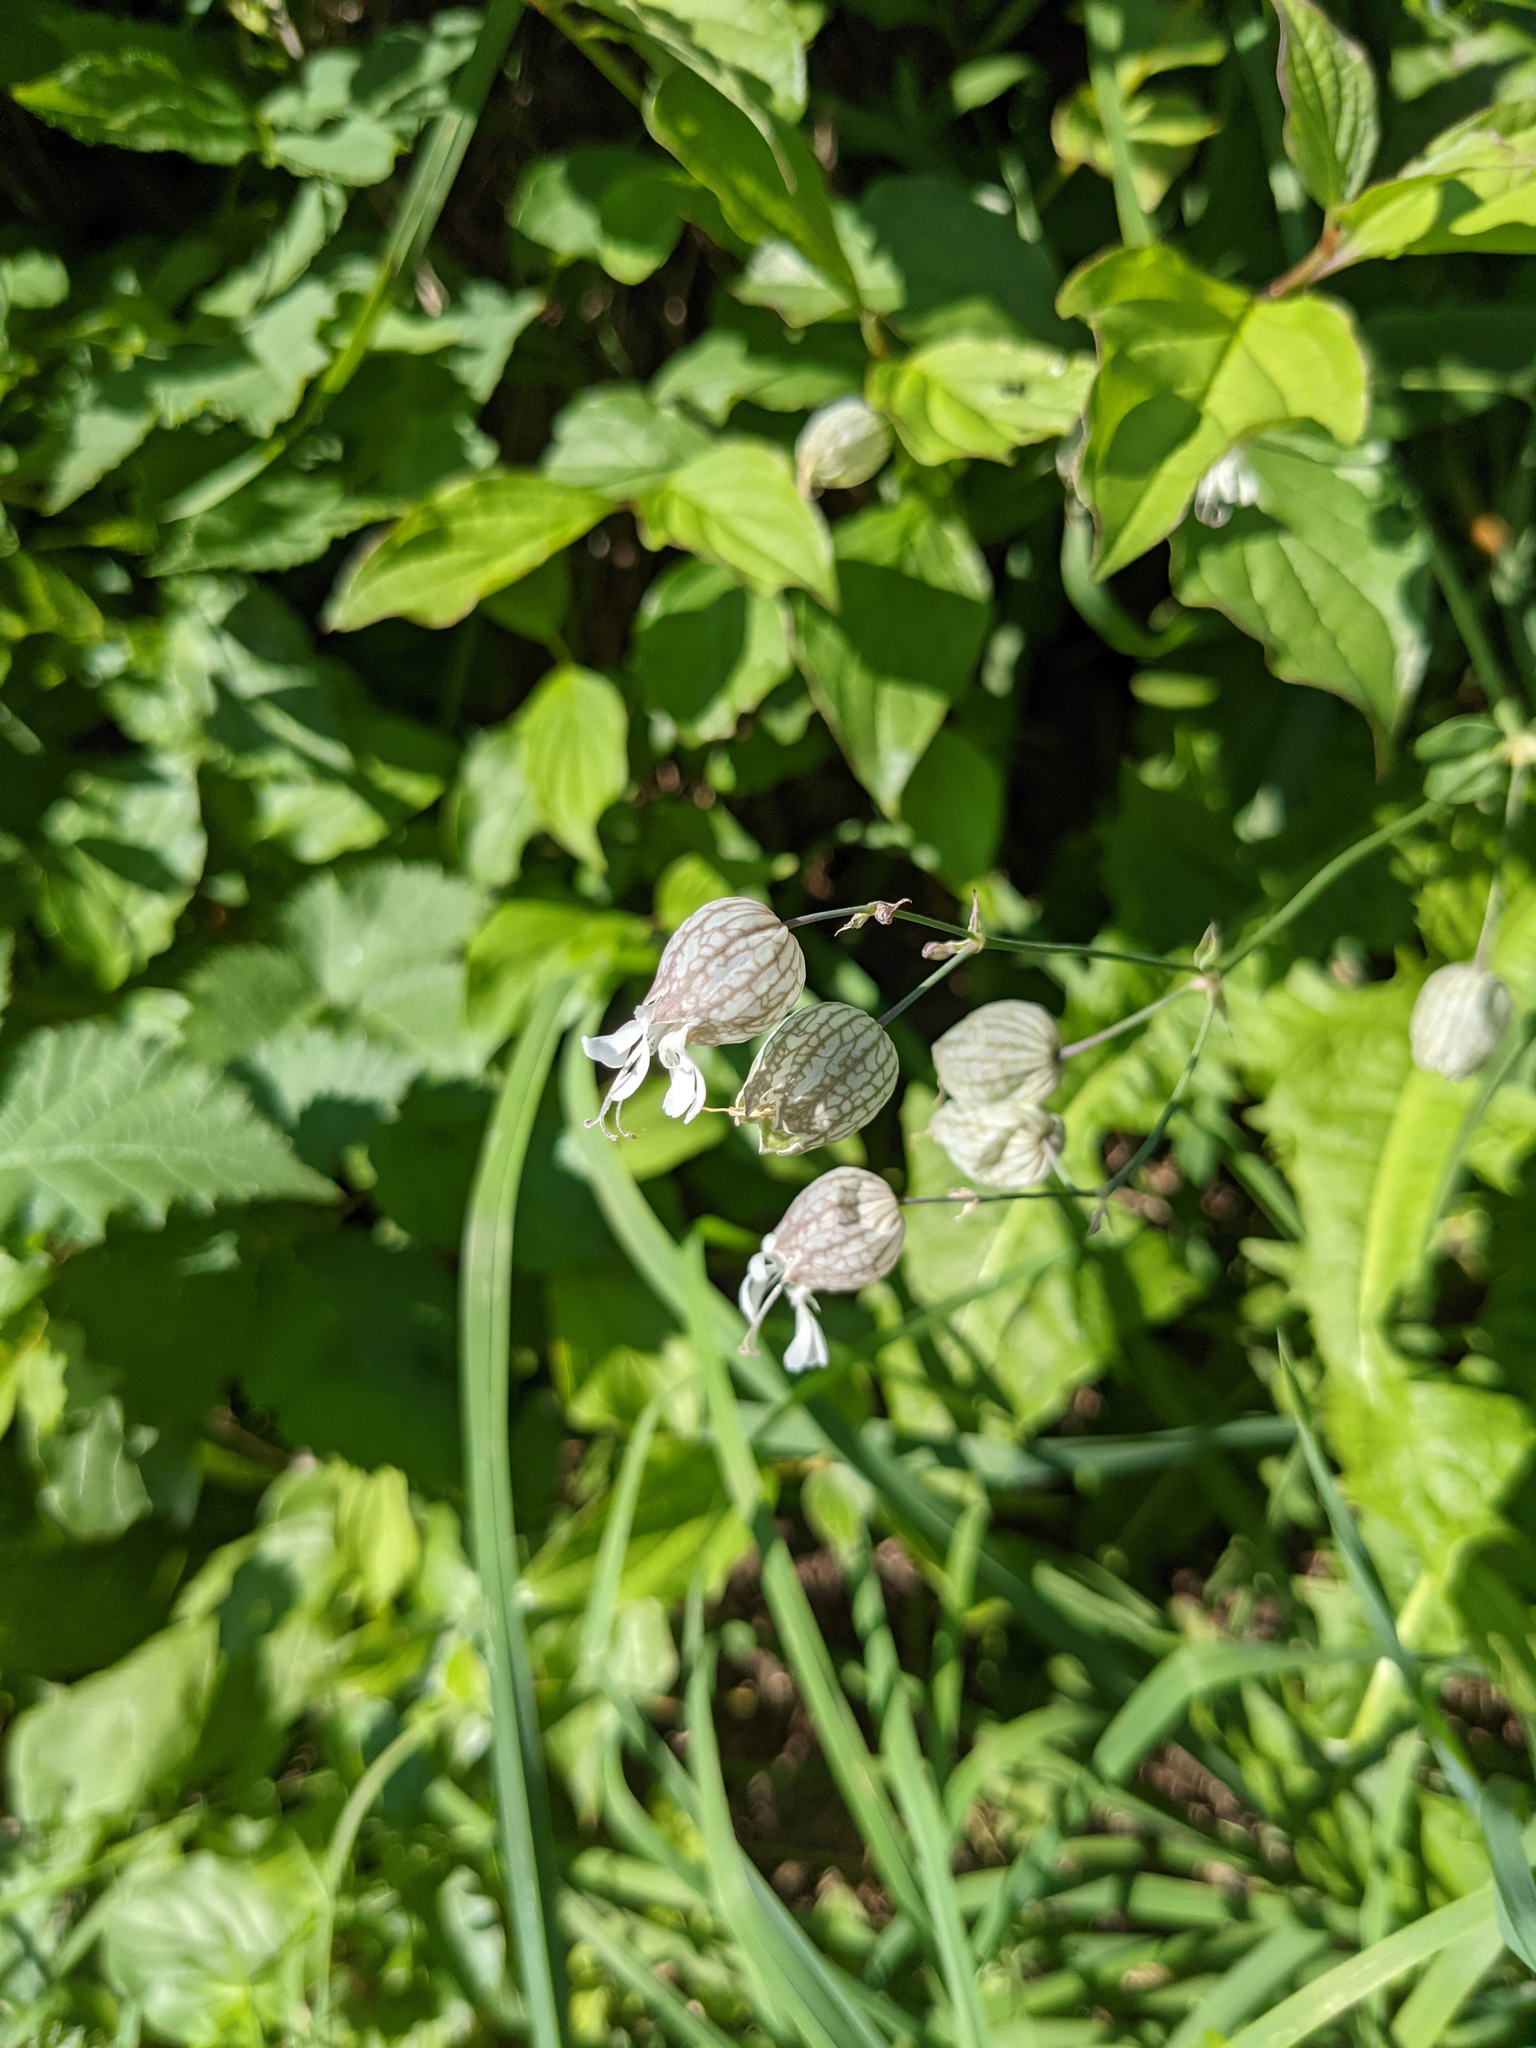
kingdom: Plantae
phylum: Tracheophyta
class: Magnoliopsida
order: Caryophyllales
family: Caryophyllaceae
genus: Silene
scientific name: Silene vulgaris
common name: Bladder campion
